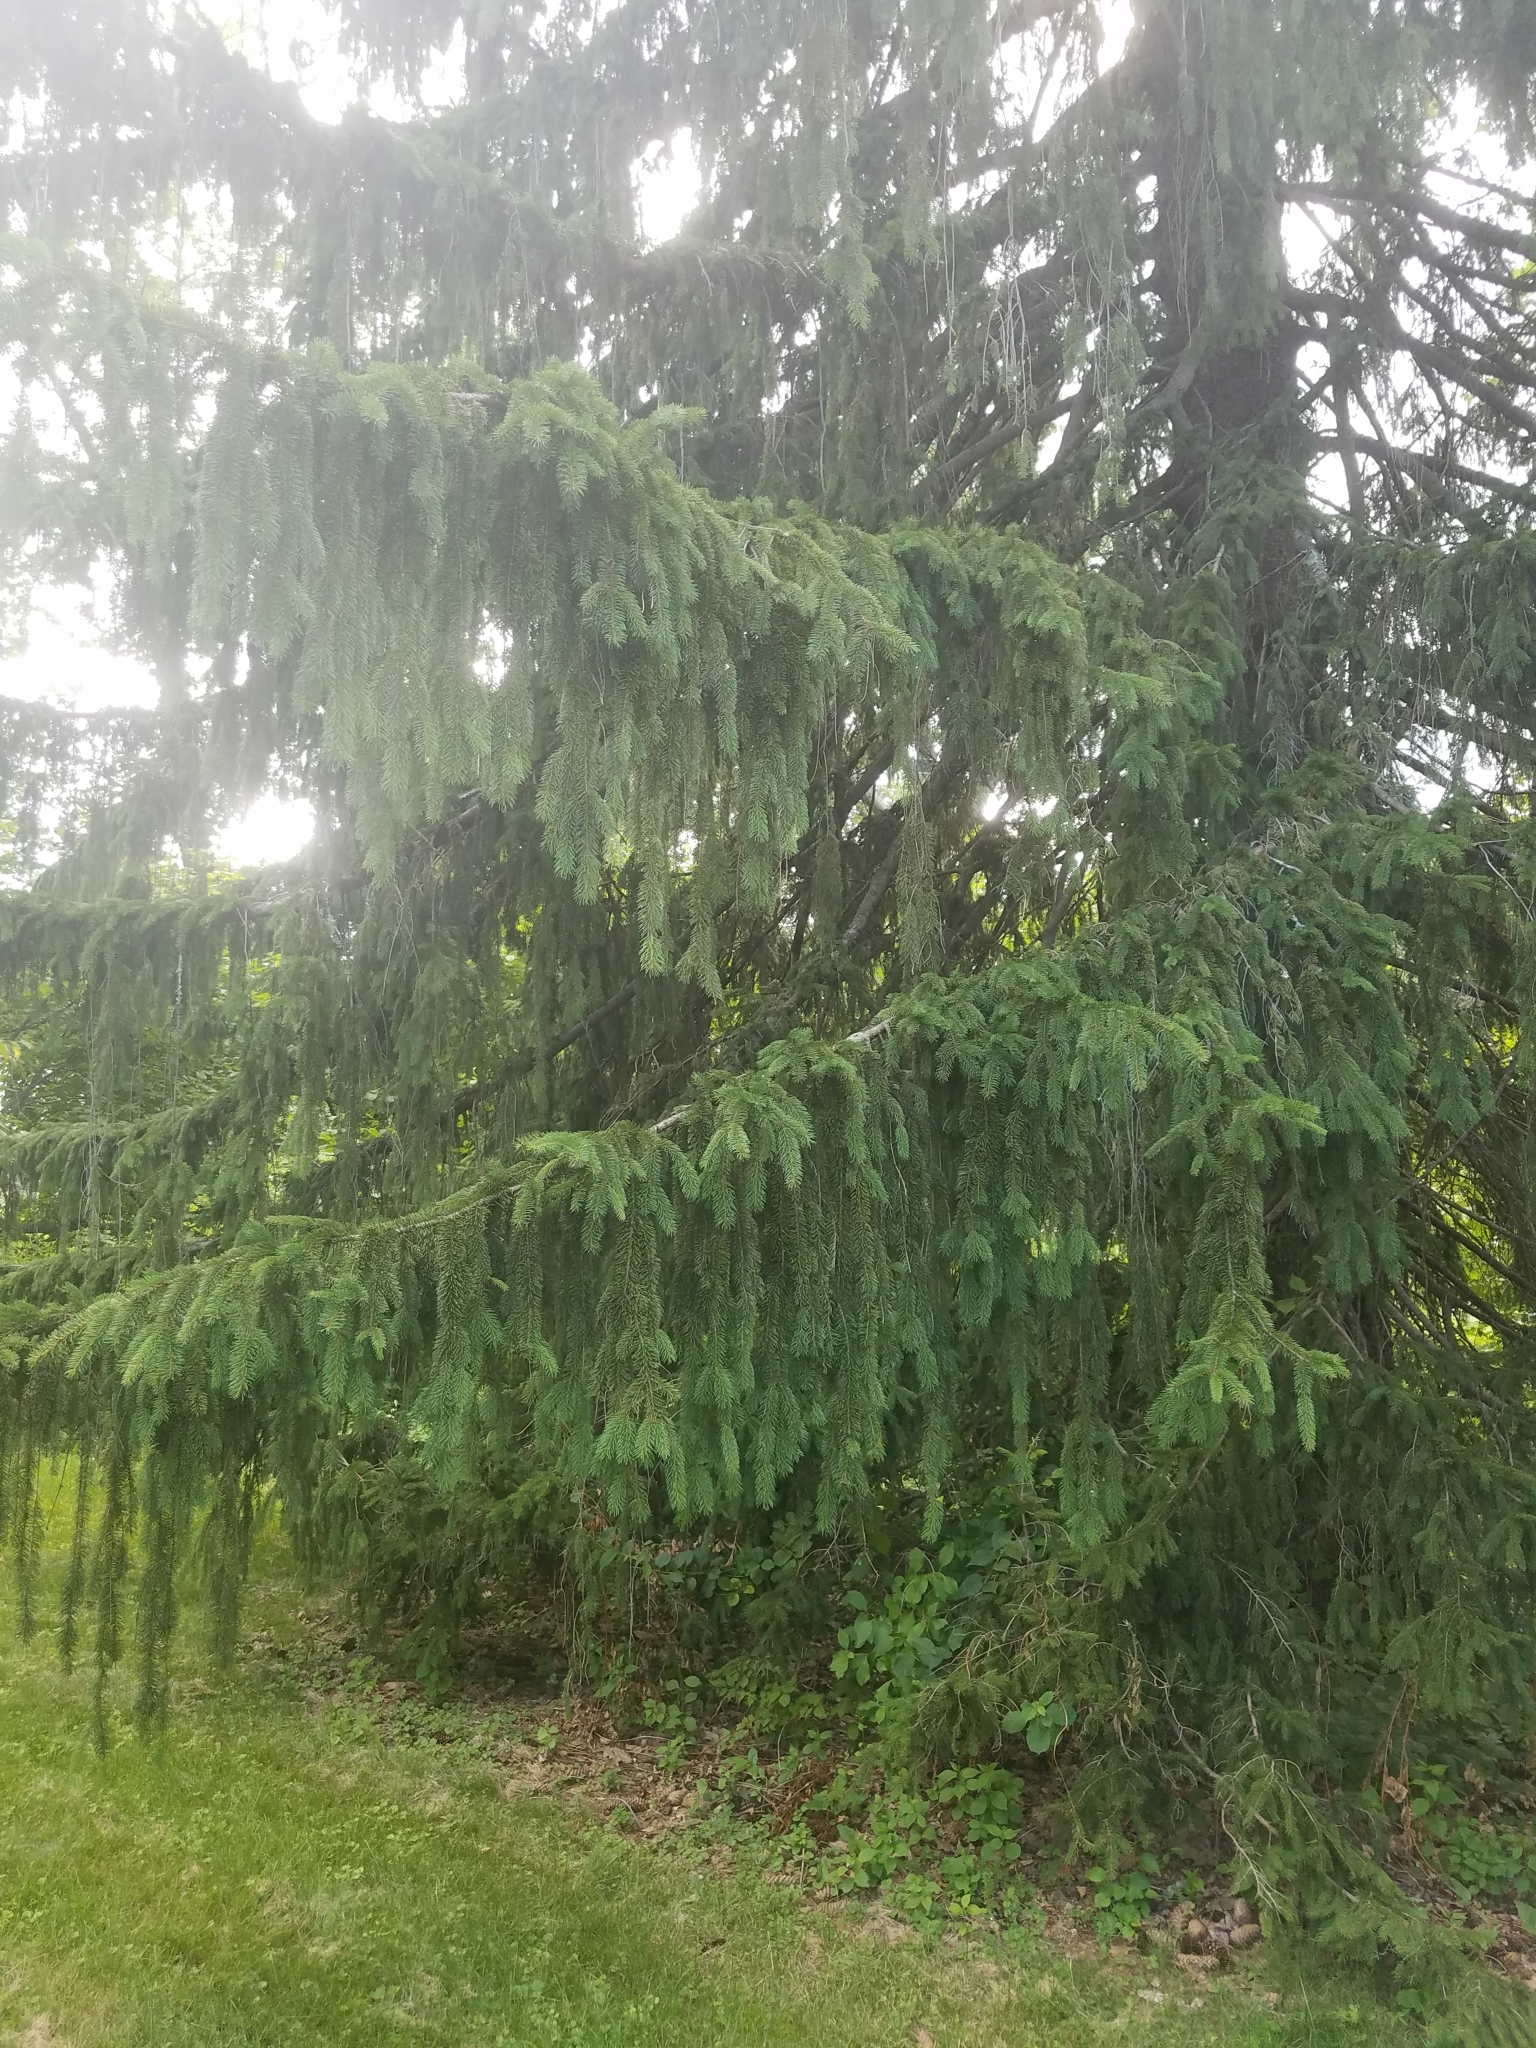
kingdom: Plantae
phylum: Tracheophyta
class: Pinopsida
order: Pinales
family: Pinaceae
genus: Picea
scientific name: Picea abies
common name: Norway spruce
